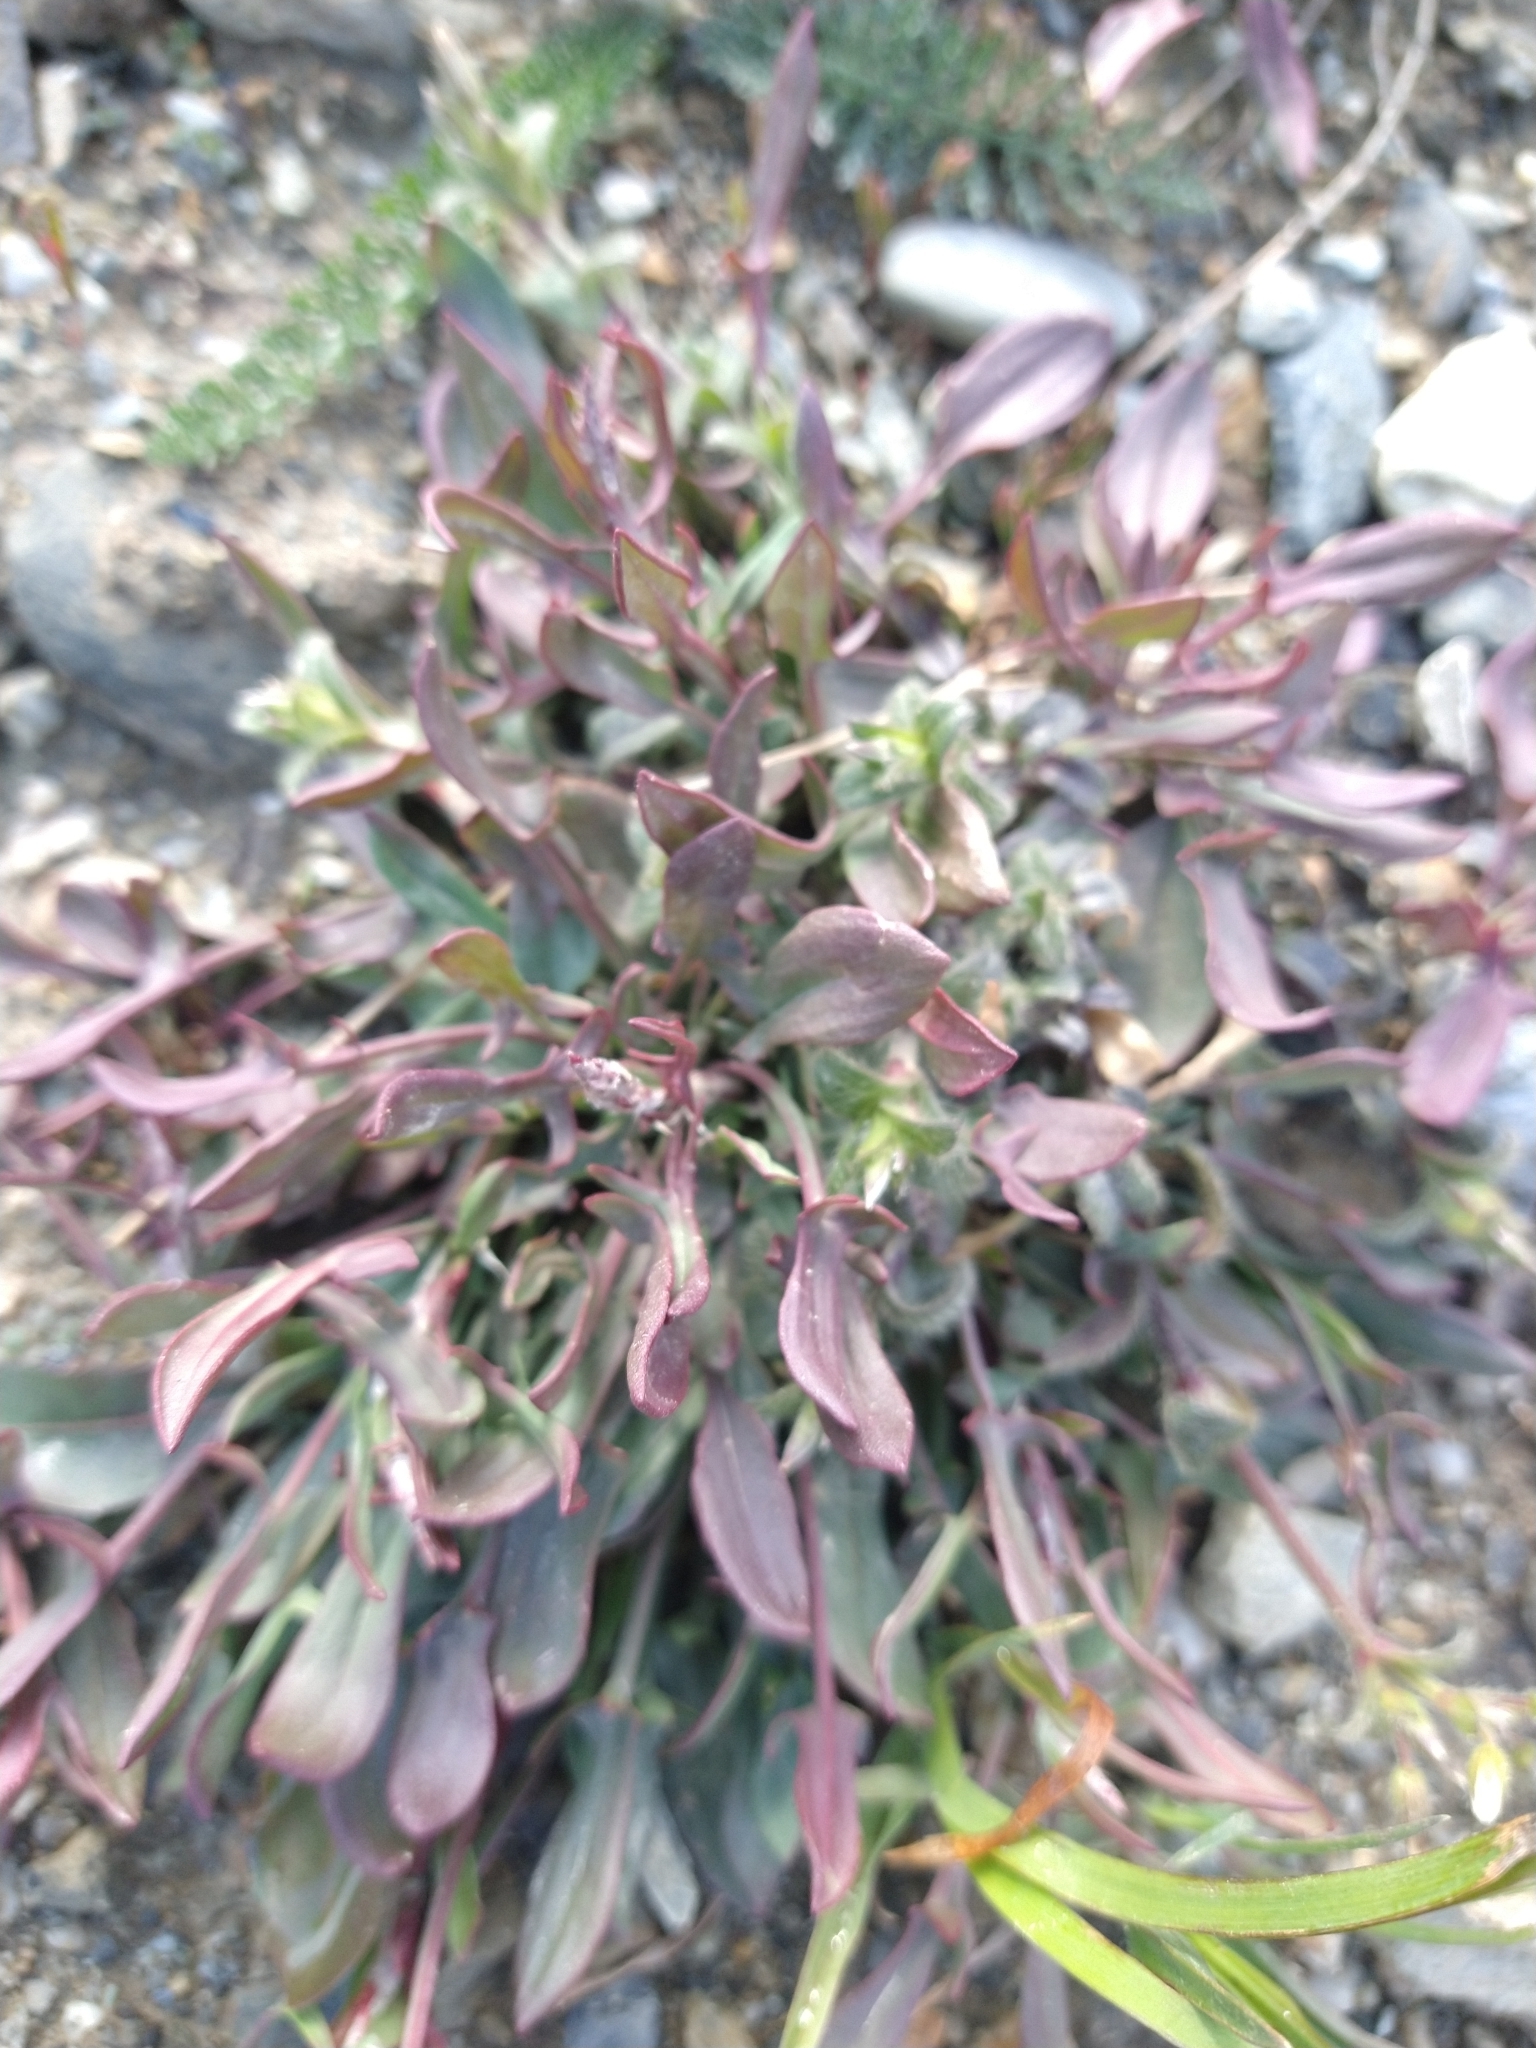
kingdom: Plantae
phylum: Tracheophyta
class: Magnoliopsida
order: Caryophyllales
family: Polygonaceae
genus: Rumex
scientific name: Rumex acetosella
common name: Common sheep sorrel
